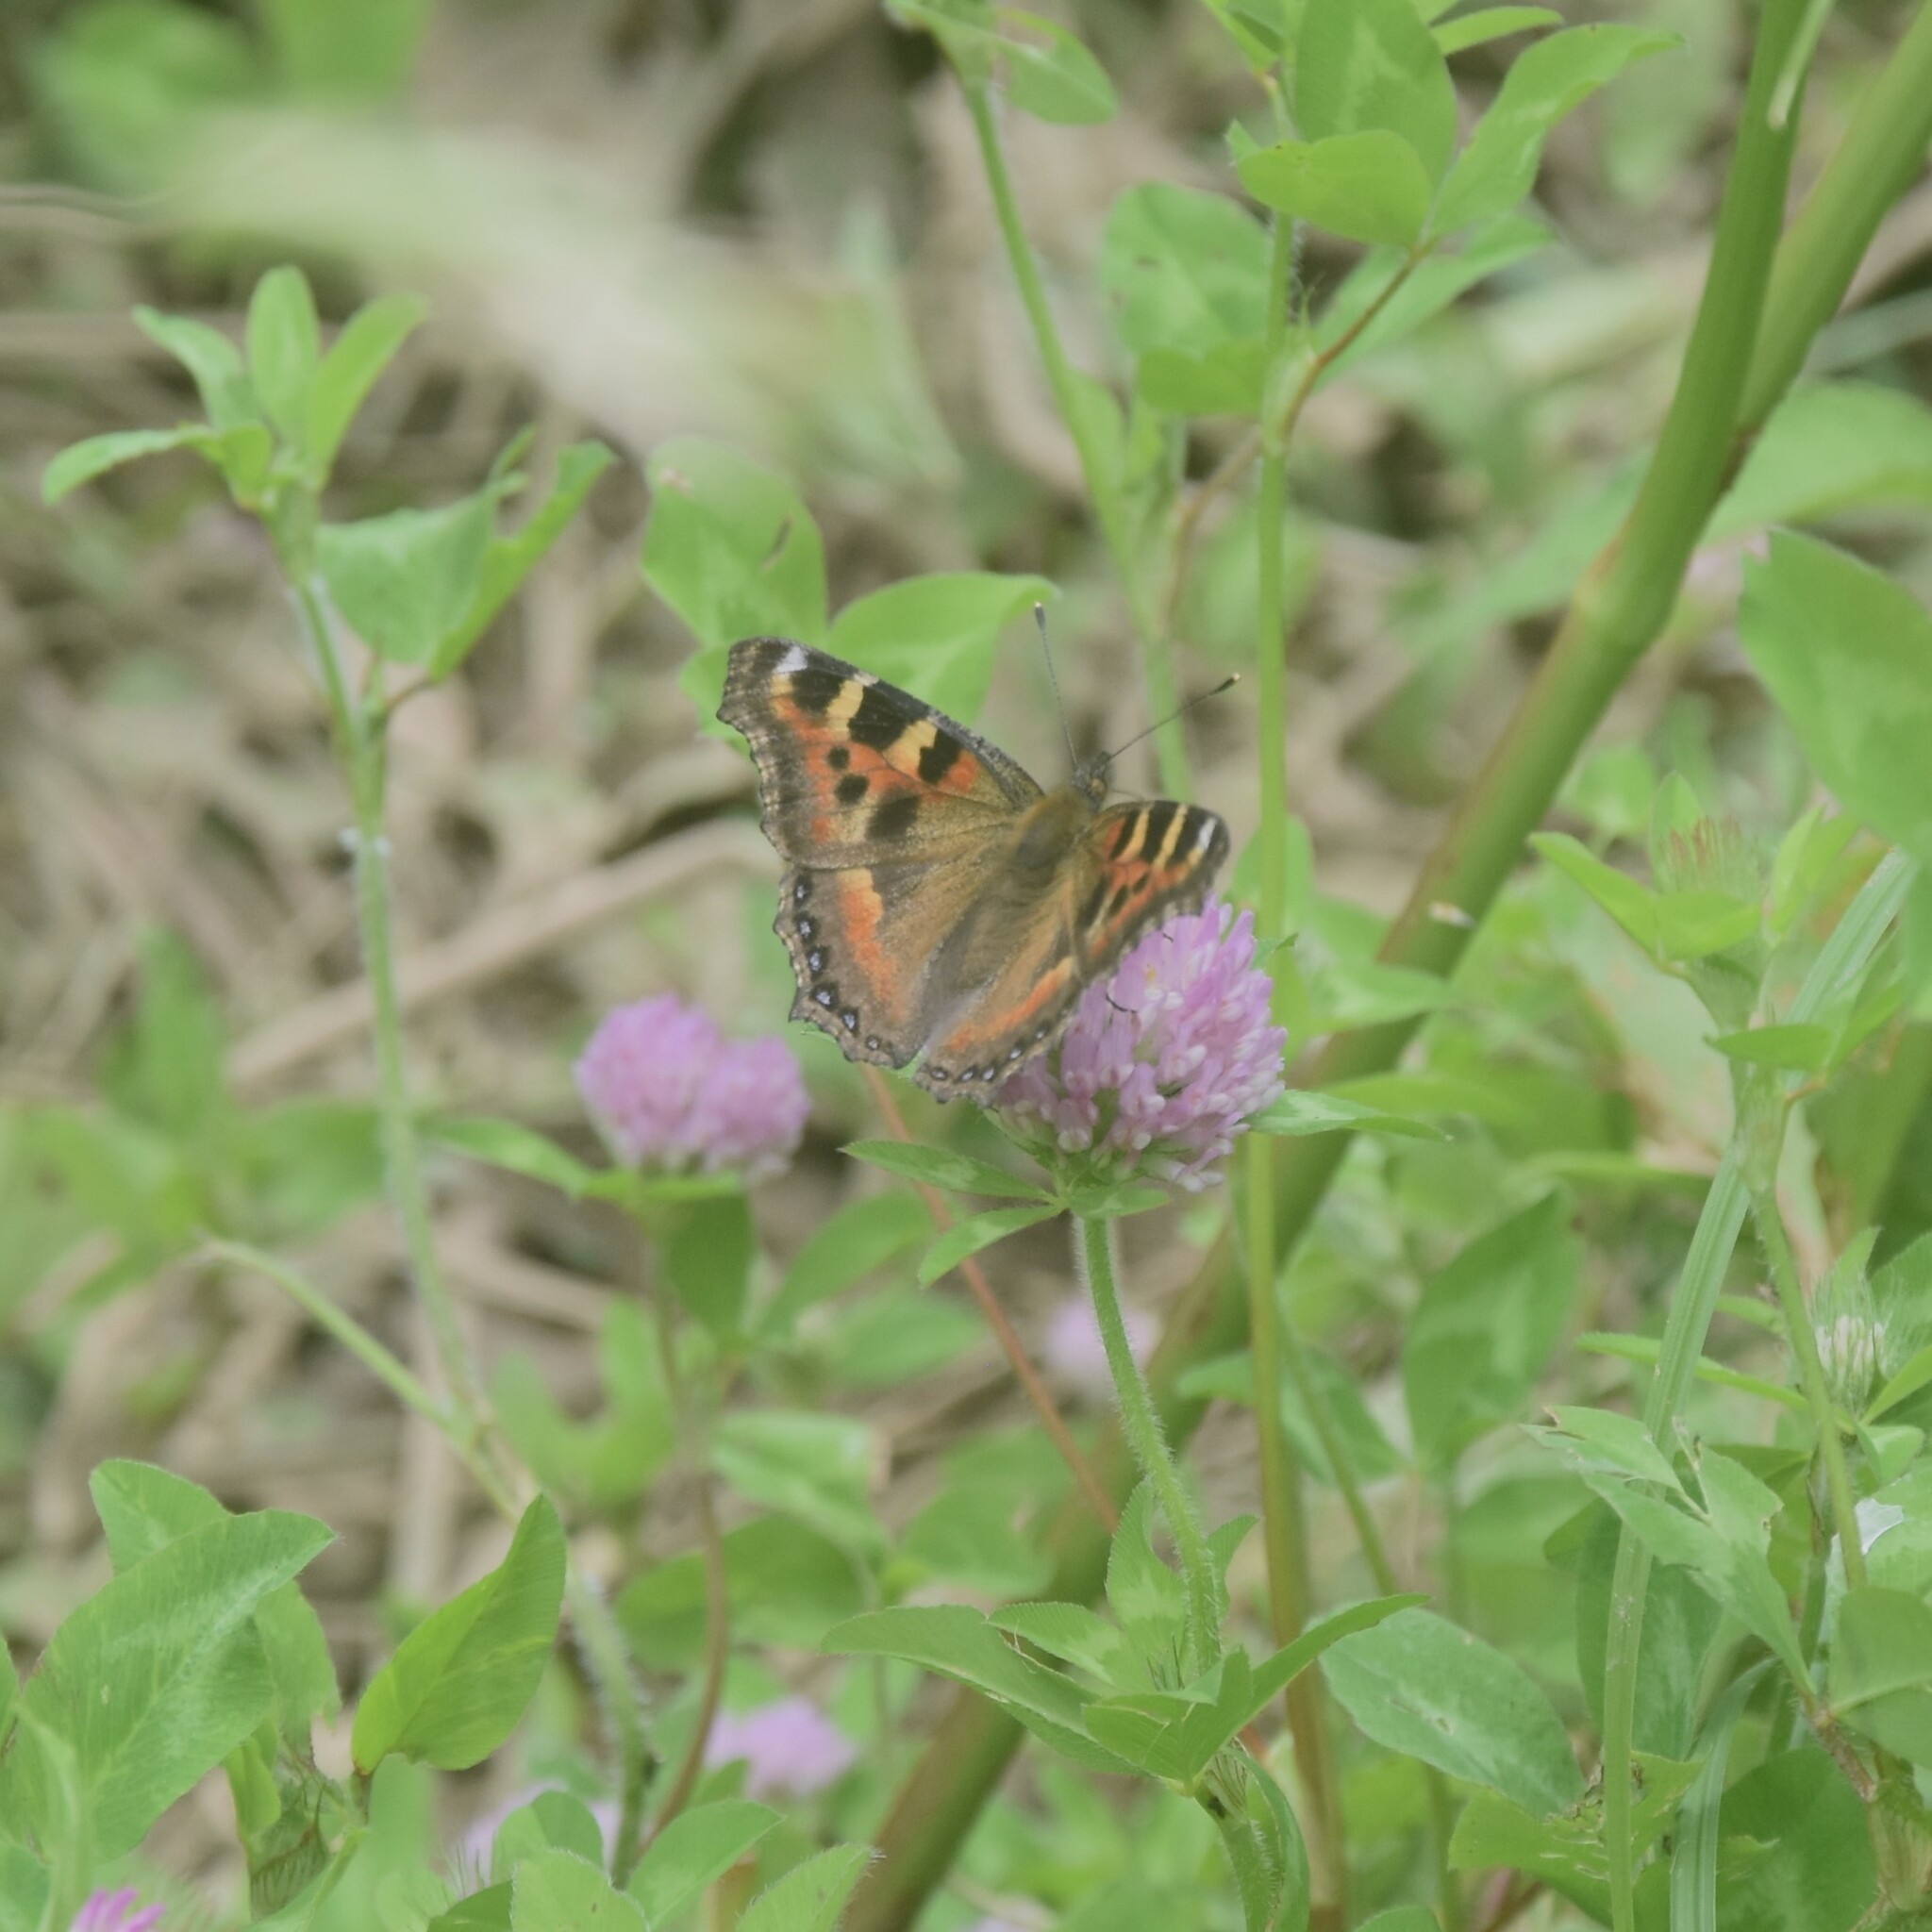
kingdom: Animalia
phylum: Arthropoda
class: Insecta
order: Lepidoptera
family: Nymphalidae
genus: Aglais
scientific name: Aglais caschmirensis
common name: Indian tortoiseshell
